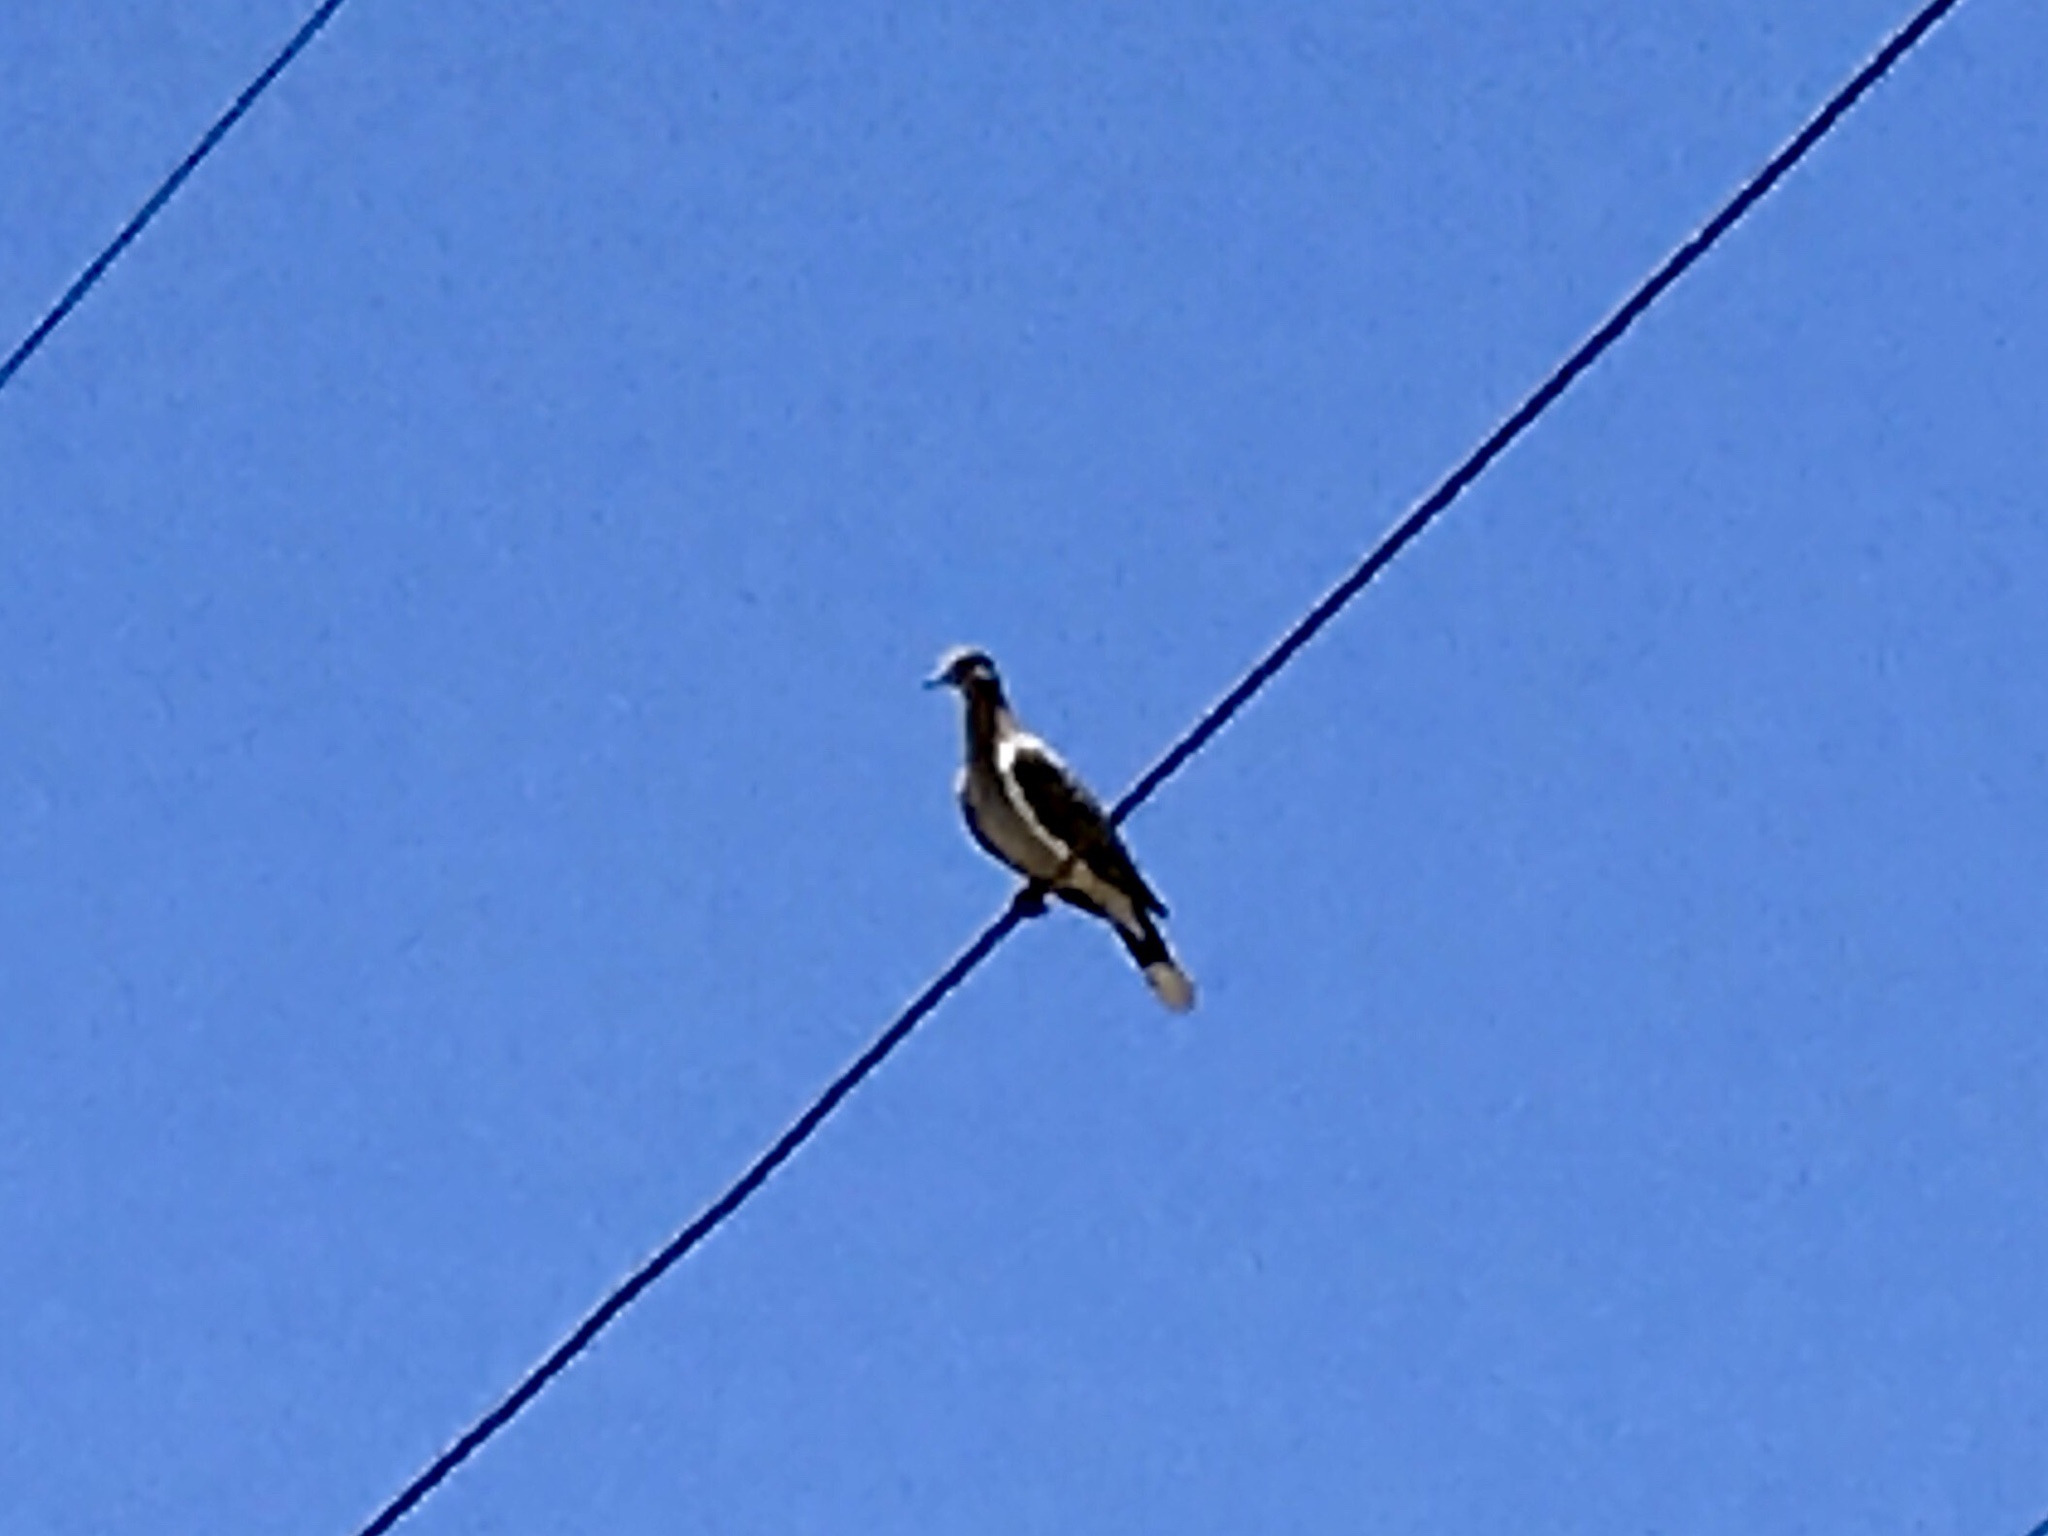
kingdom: Animalia
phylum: Chordata
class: Aves
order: Columbiformes
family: Columbidae
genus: Zenaida
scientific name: Zenaida asiatica
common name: White-winged dove
